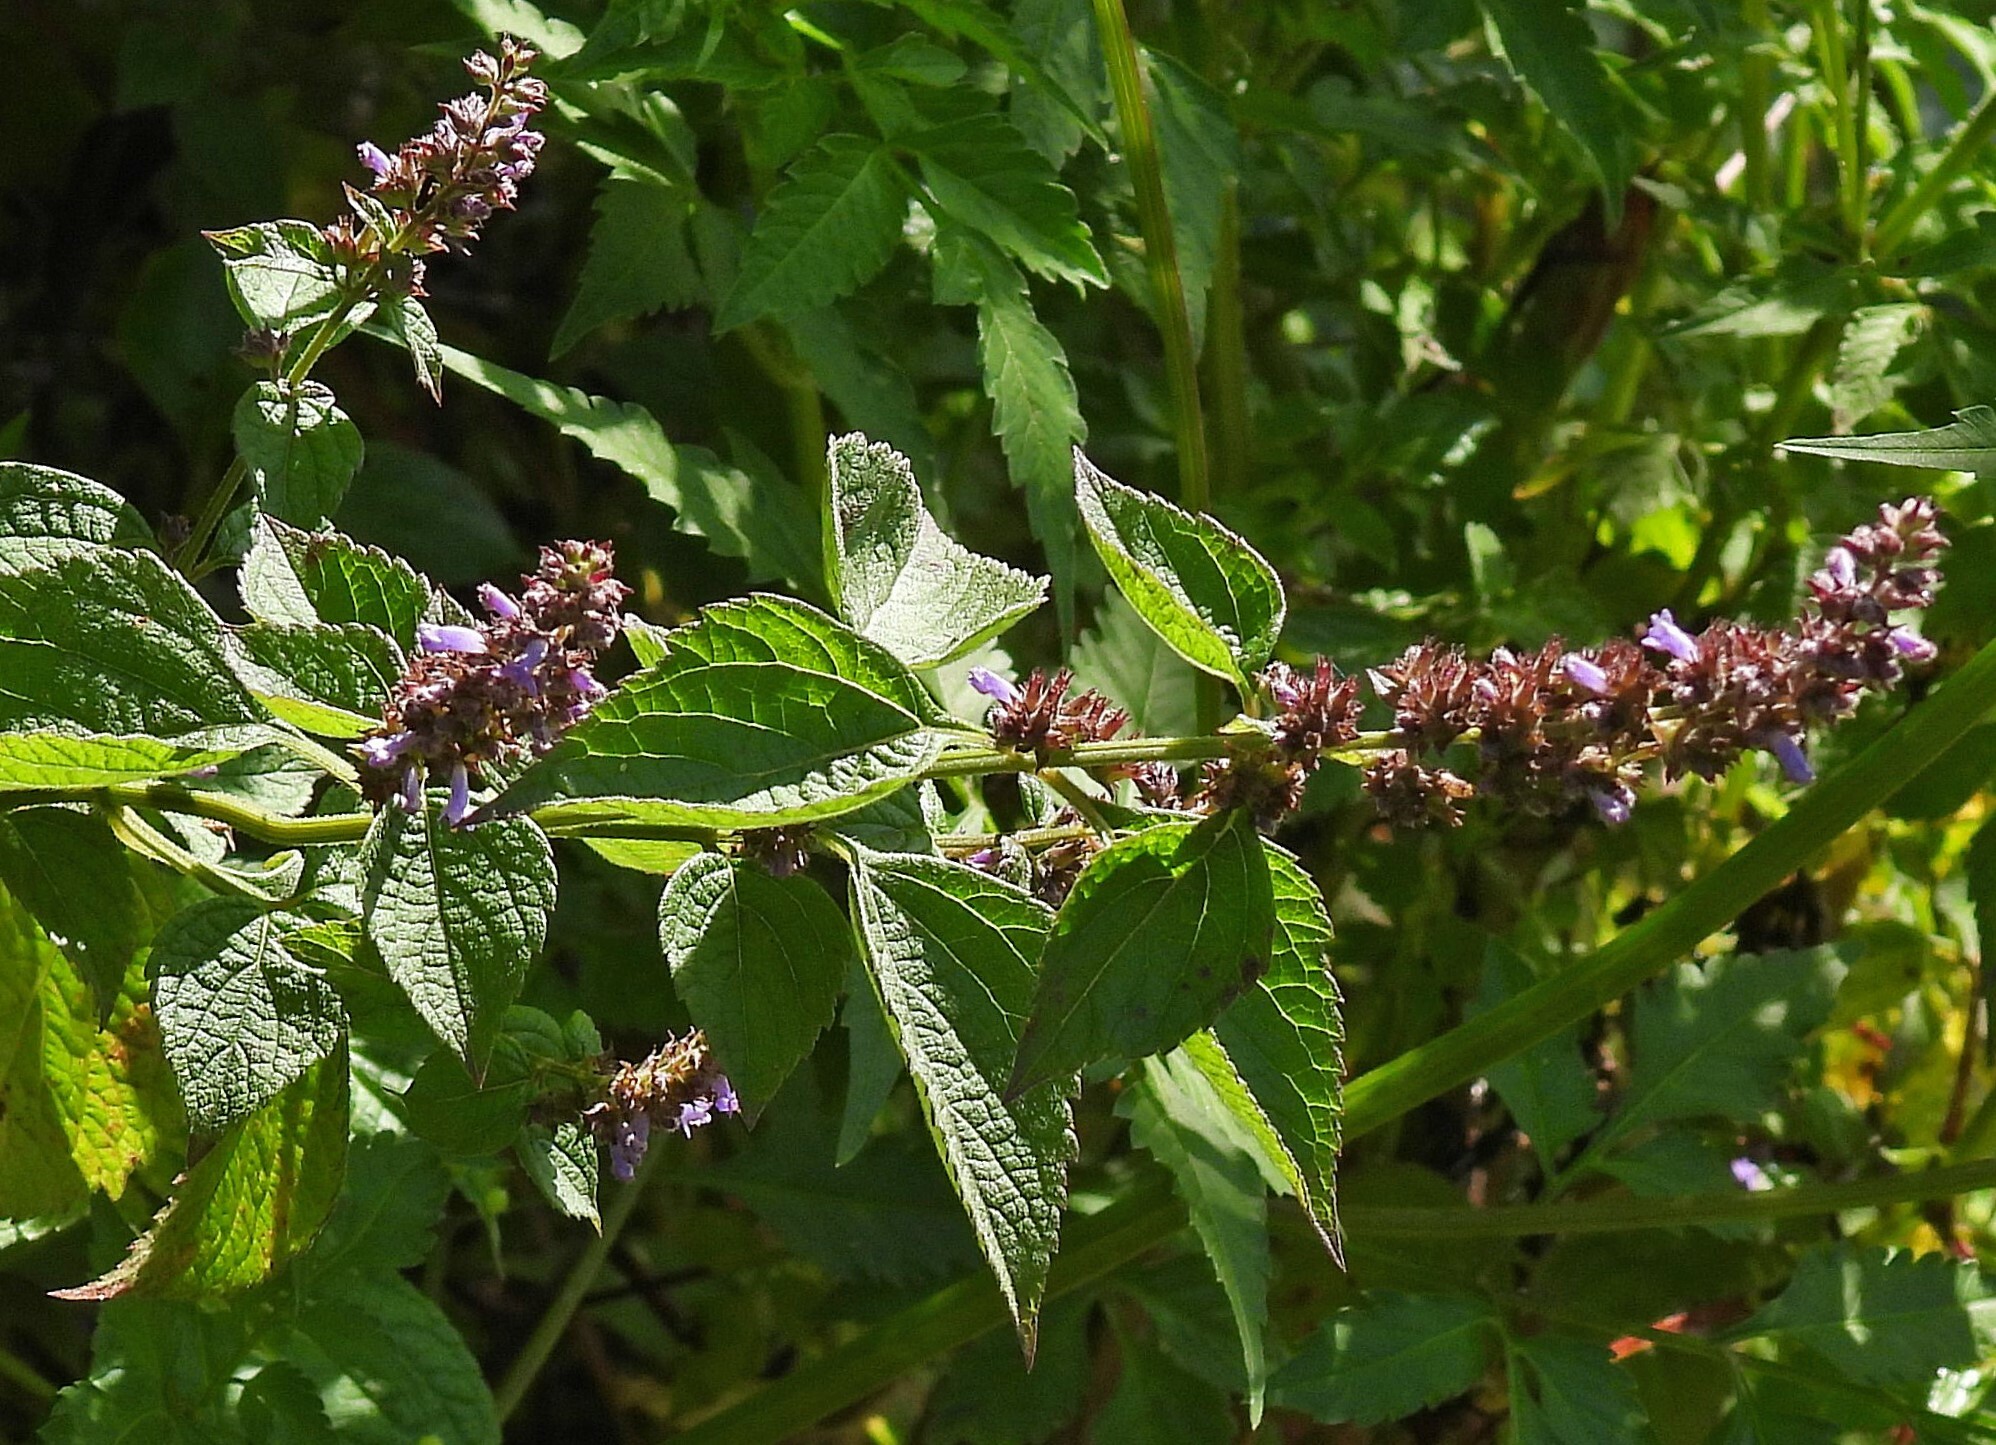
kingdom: Plantae
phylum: Tracheophyta
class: Magnoliopsida
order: Lamiales
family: Lamiaceae
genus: Cantinoa
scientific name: Cantinoa mutabilis
